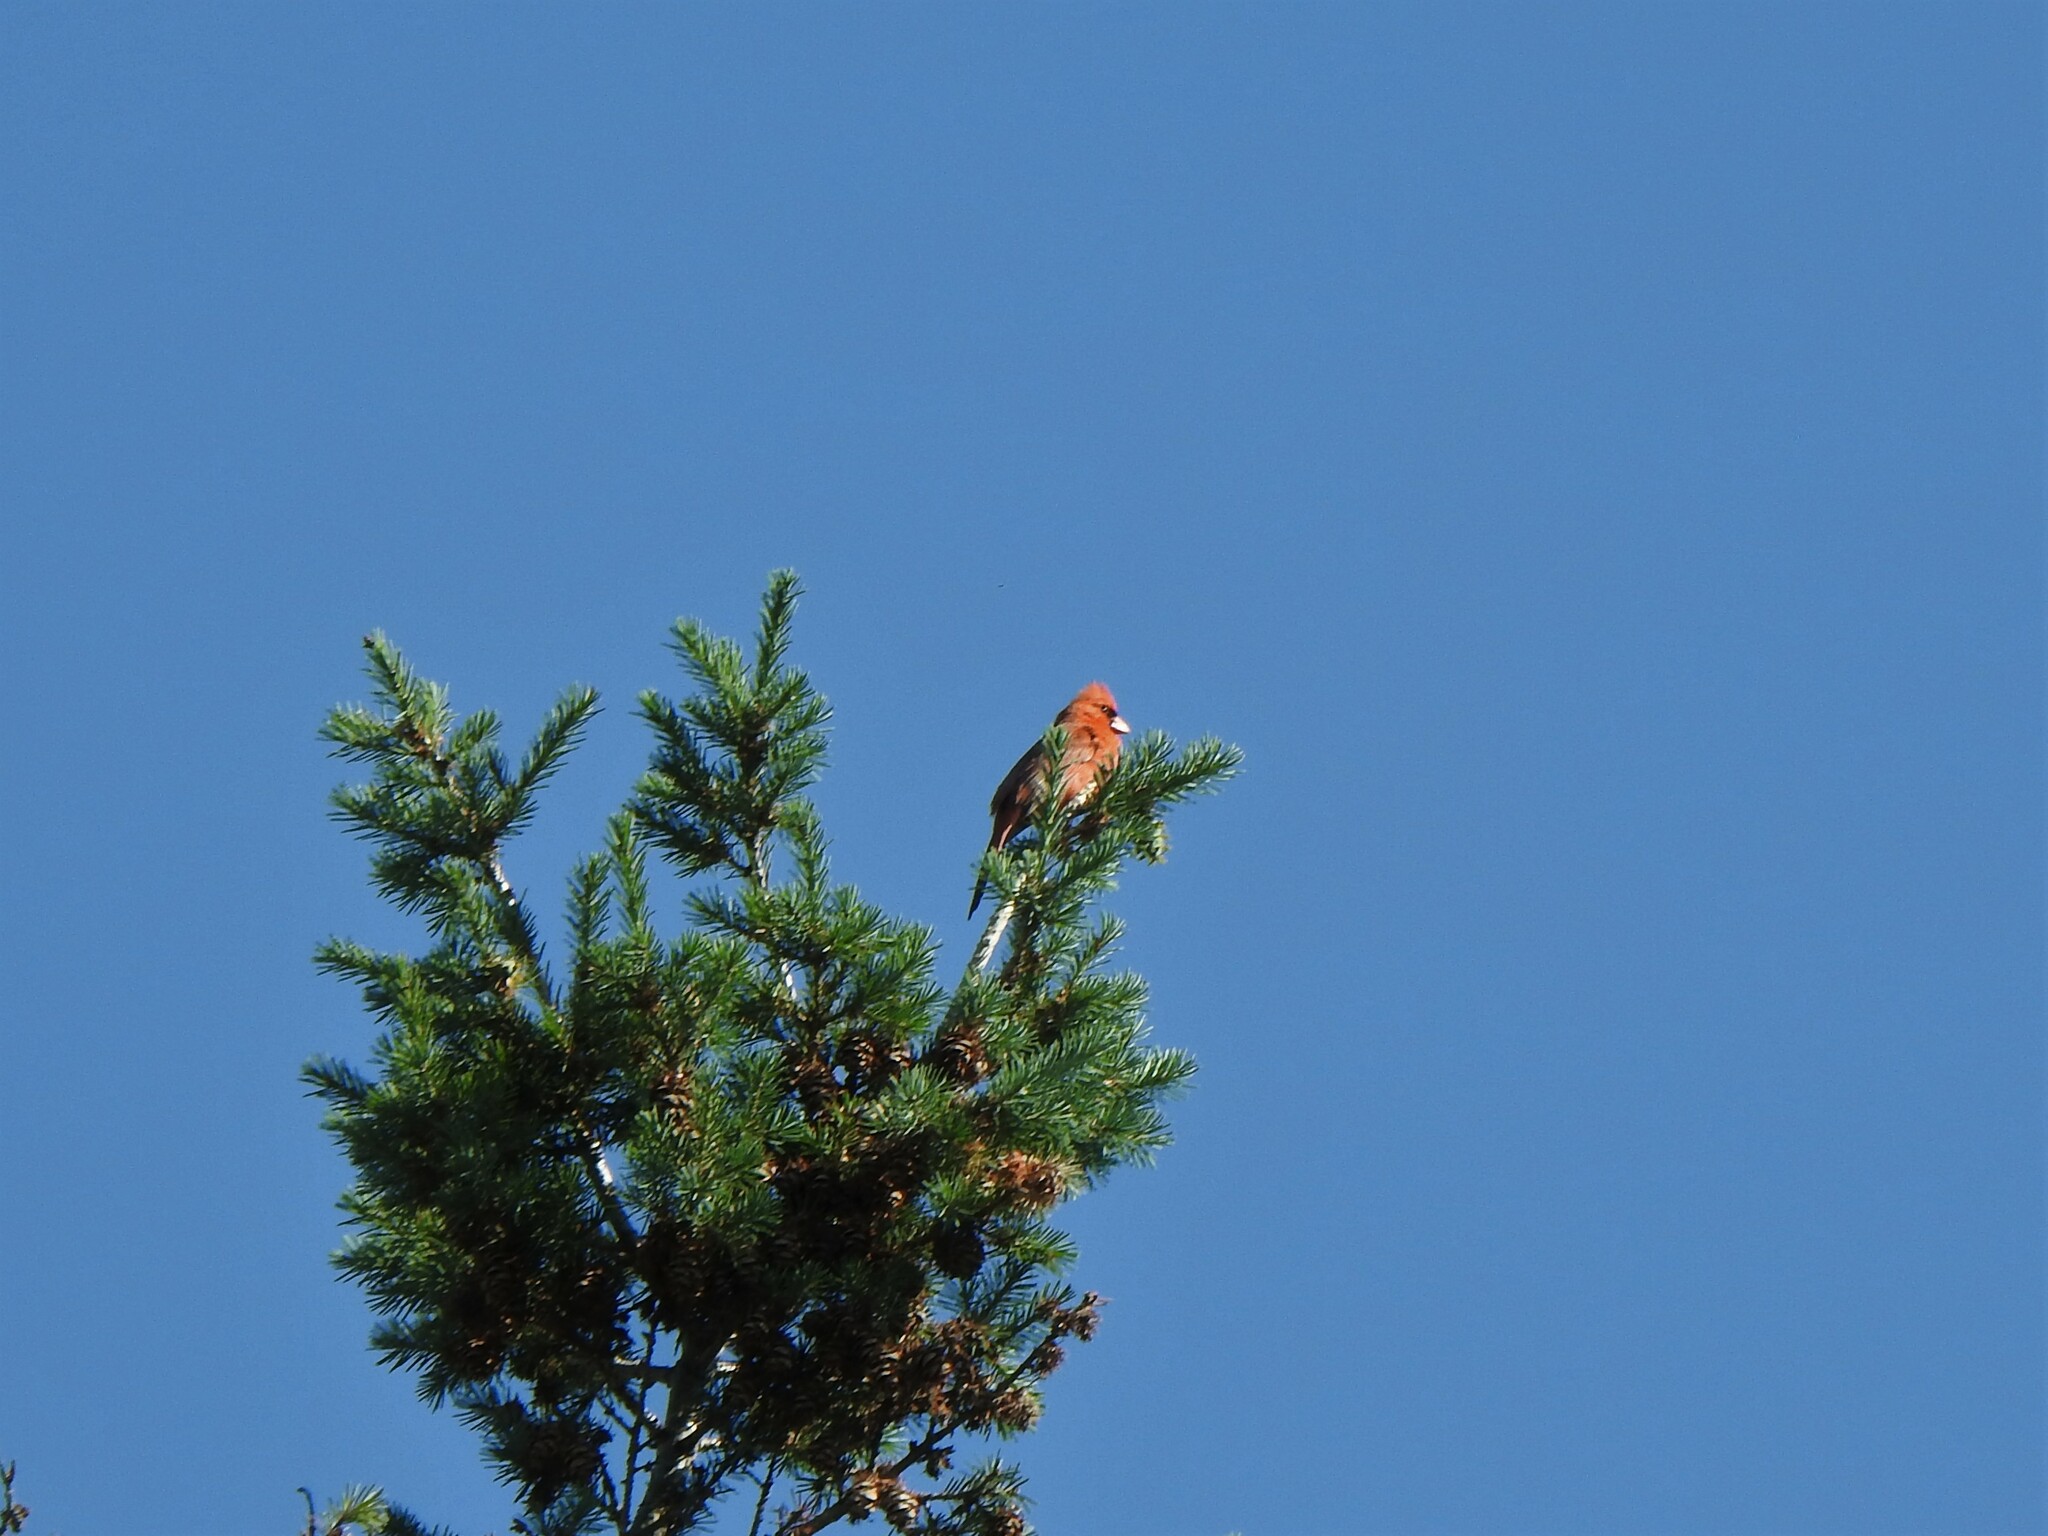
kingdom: Animalia
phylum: Chordata
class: Aves
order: Passeriformes
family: Cardinalidae
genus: Cardinalis
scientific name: Cardinalis cardinalis
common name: Northern cardinal
